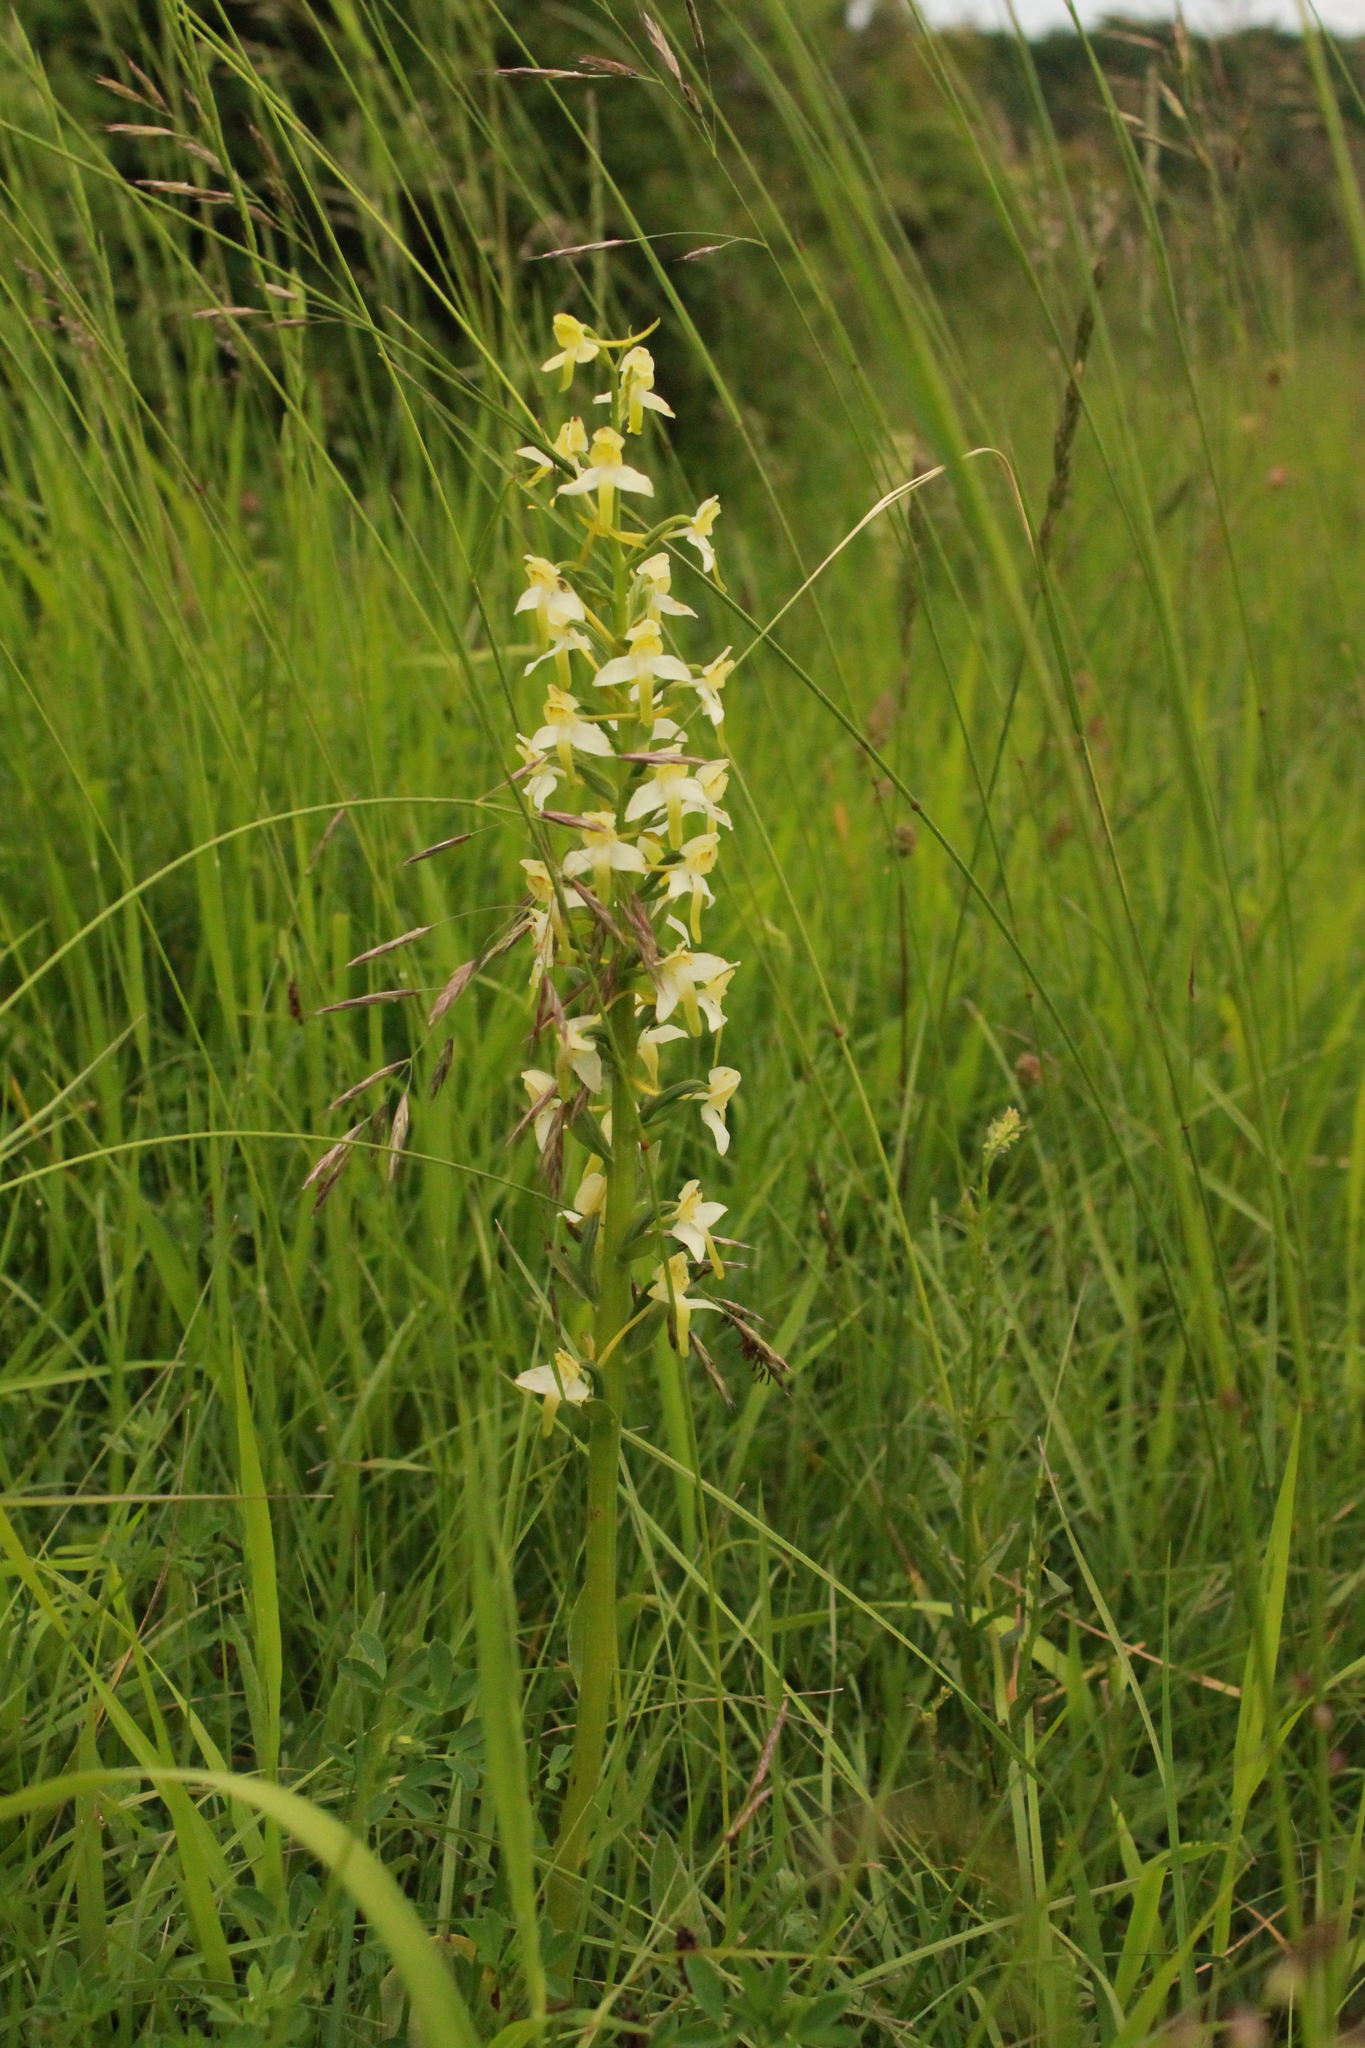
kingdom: Plantae
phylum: Tracheophyta
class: Liliopsida
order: Asparagales
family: Orchidaceae
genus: Platanthera
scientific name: Platanthera chlorantha
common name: Greater butterfly-orchid
